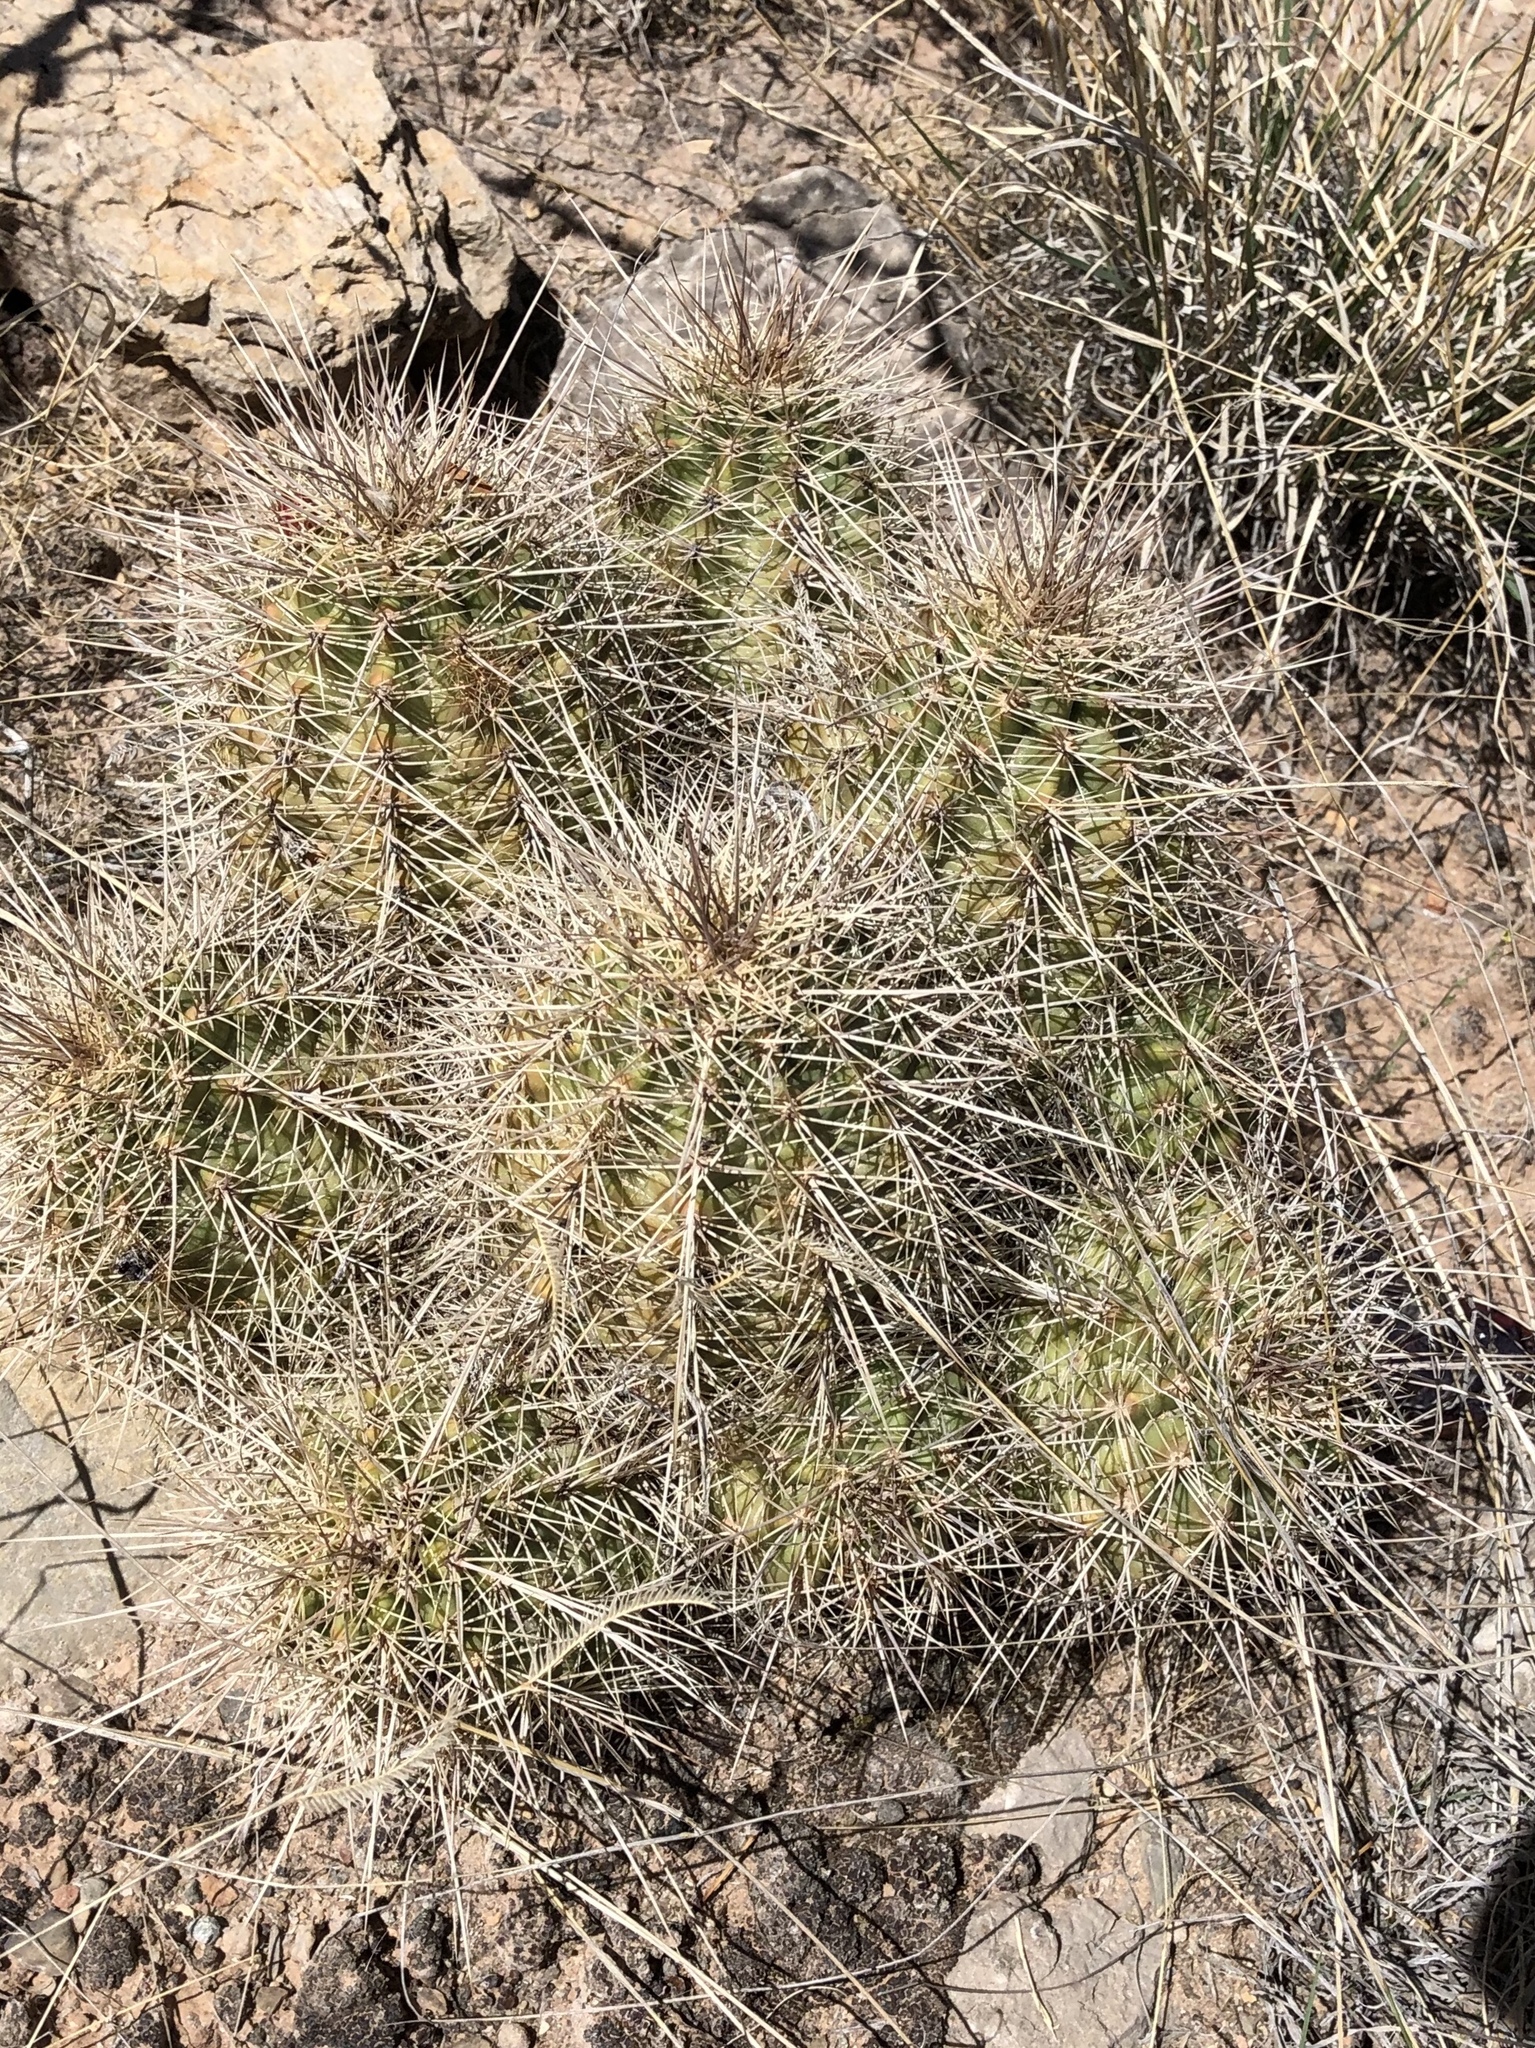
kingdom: Plantae
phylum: Tracheophyta
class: Magnoliopsida
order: Caryophyllales
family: Cactaceae
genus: Echinocereus
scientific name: Echinocereus coccineus
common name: Scarlet hedgehog cactus
